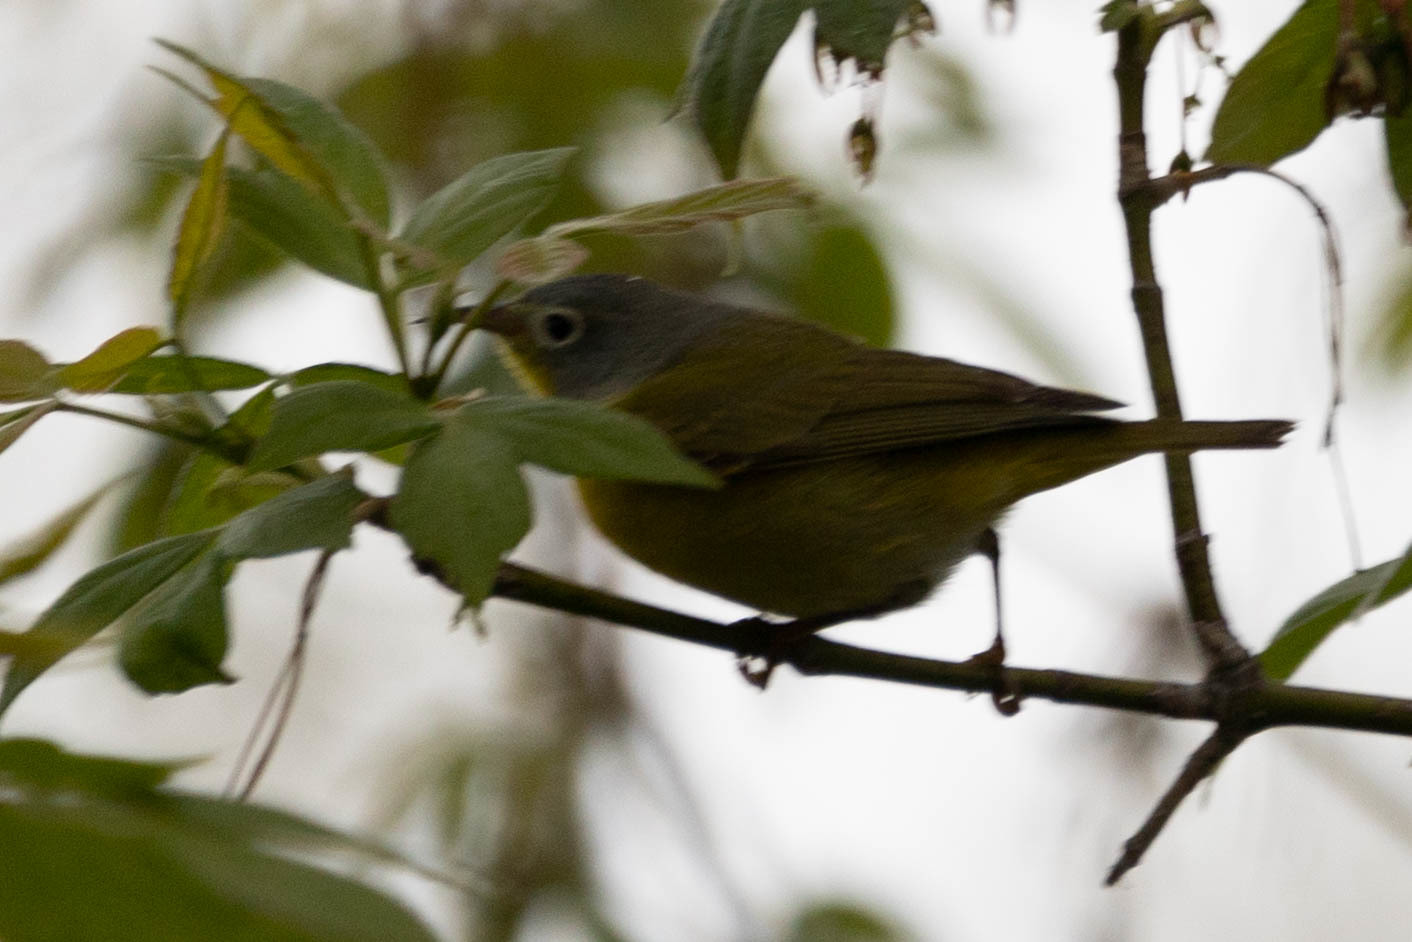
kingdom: Animalia
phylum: Chordata
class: Aves
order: Passeriformes
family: Parulidae
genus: Leiothlypis
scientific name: Leiothlypis ruficapilla
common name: Nashville warbler
